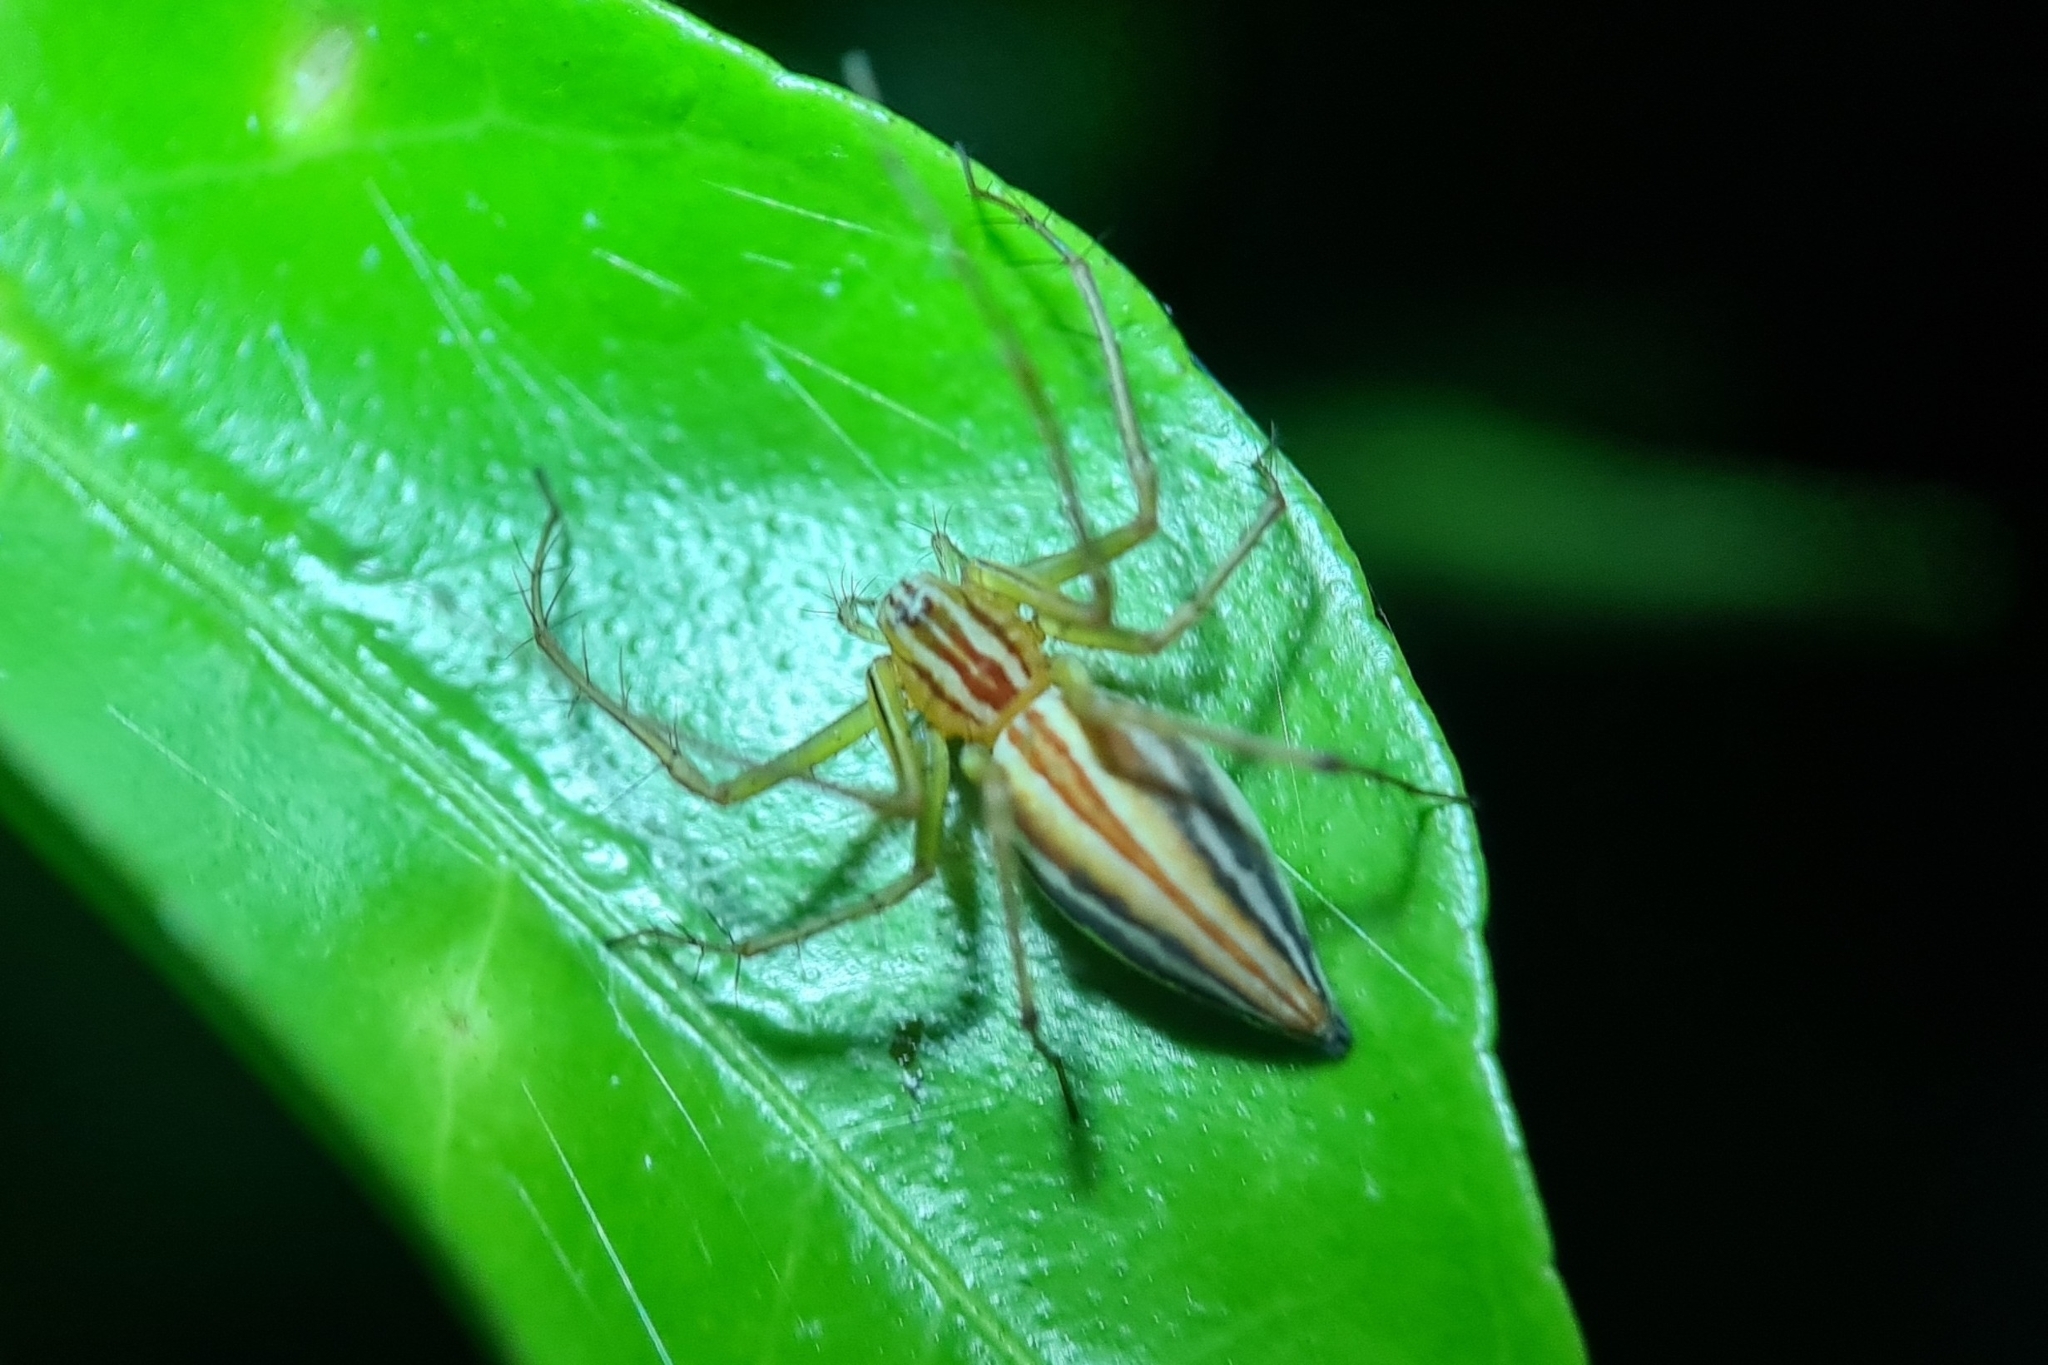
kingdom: Animalia
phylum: Arthropoda
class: Arachnida
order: Araneae
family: Oxyopidae
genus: Oxyopes
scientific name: Oxyopes macilentus
